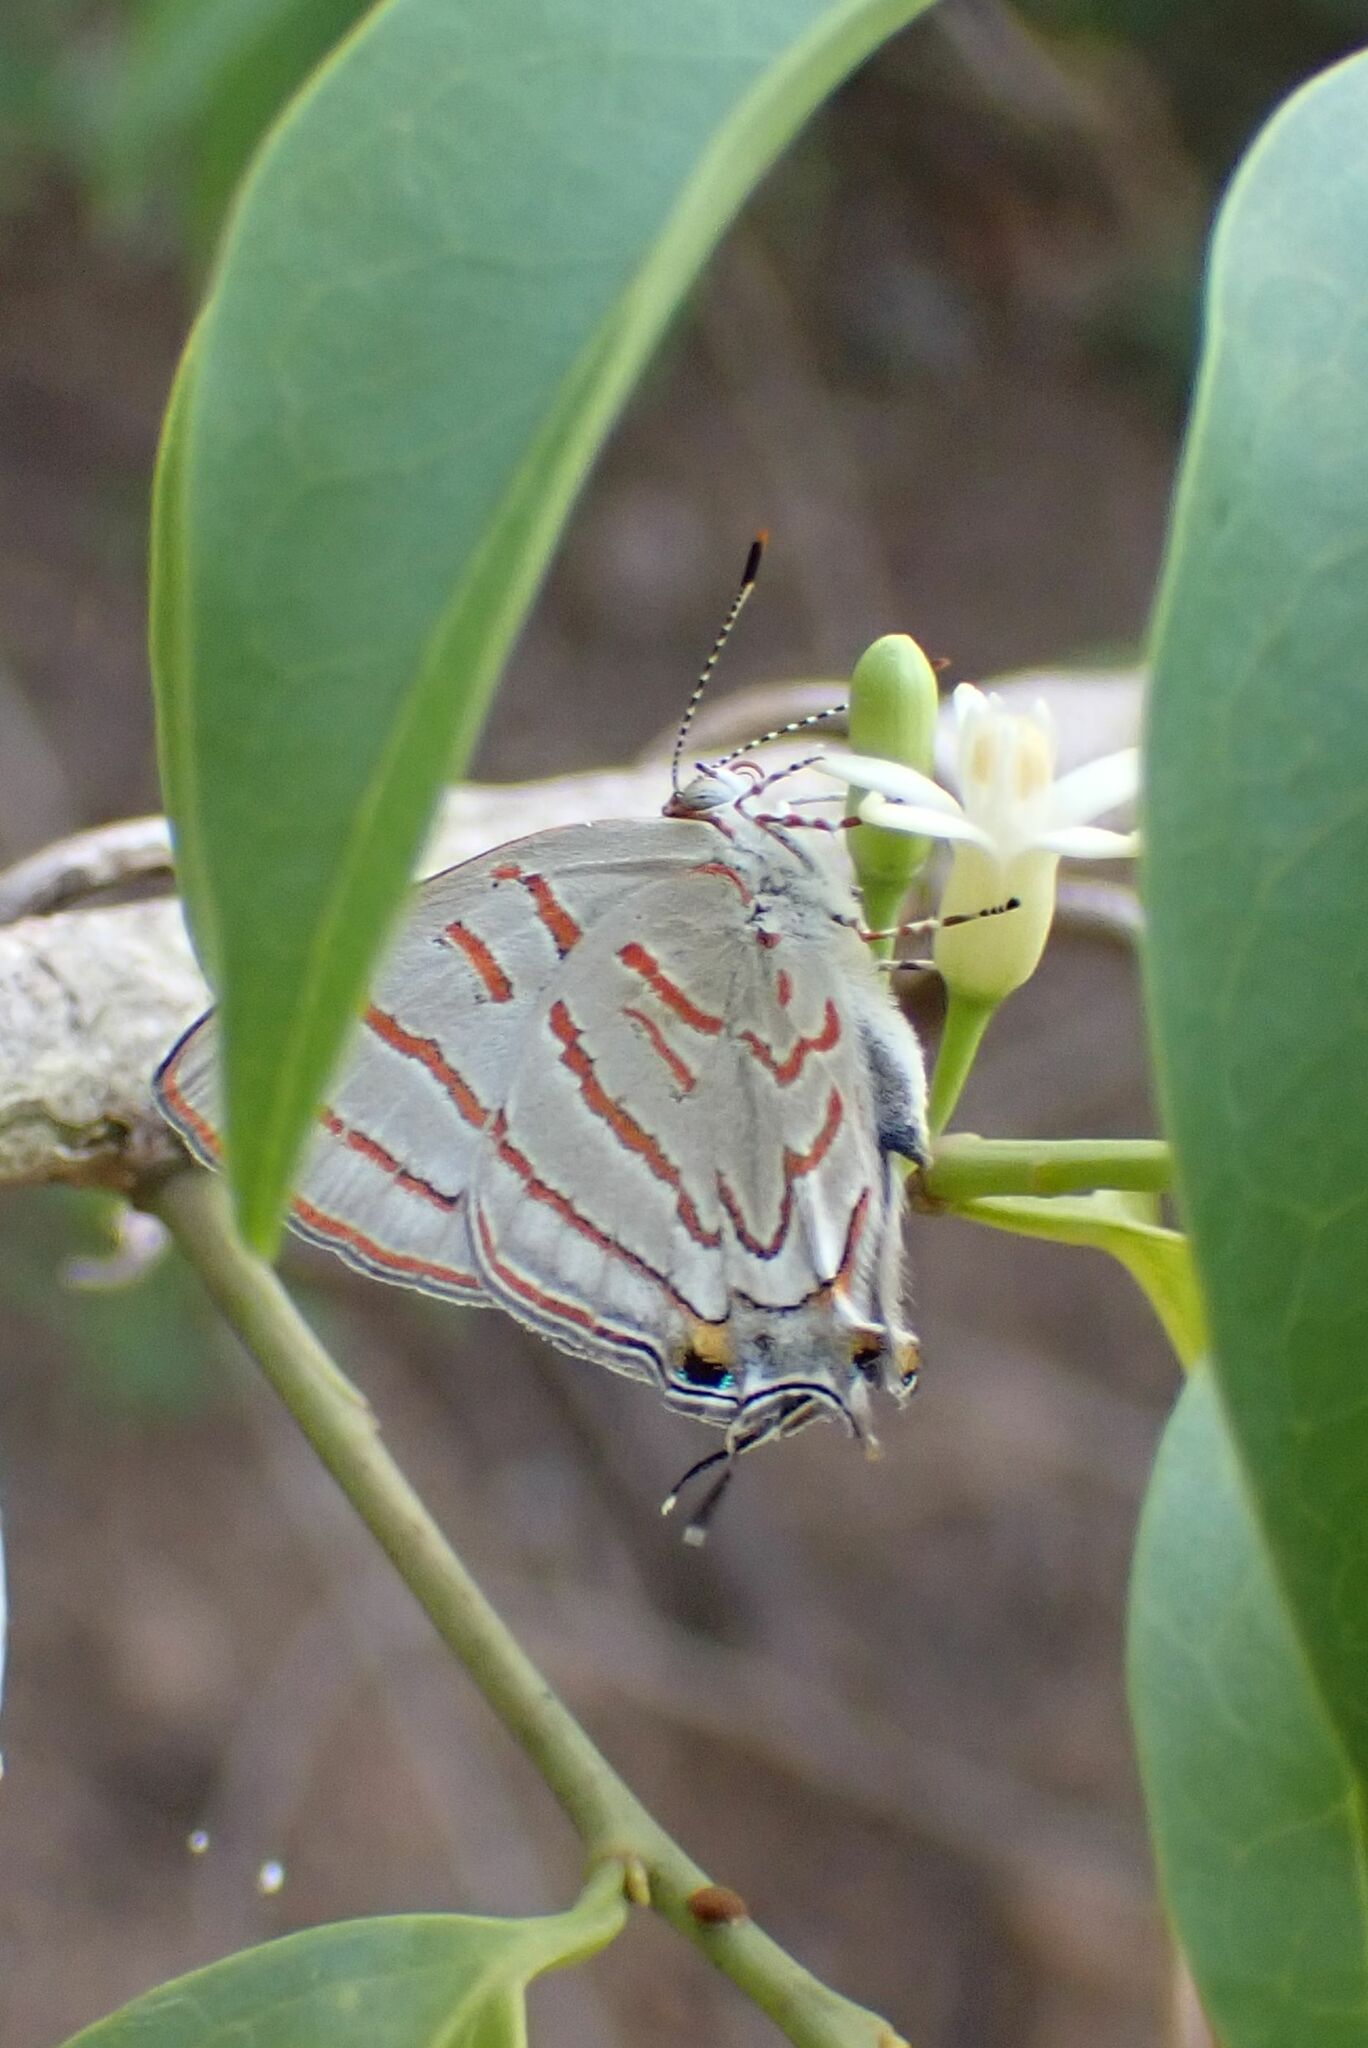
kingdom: Animalia
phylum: Arthropoda
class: Insecta
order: Lepidoptera
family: Lycaenidae
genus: Hemiolaus
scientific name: Hemiolaus caeculus
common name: Azure hairstreak
